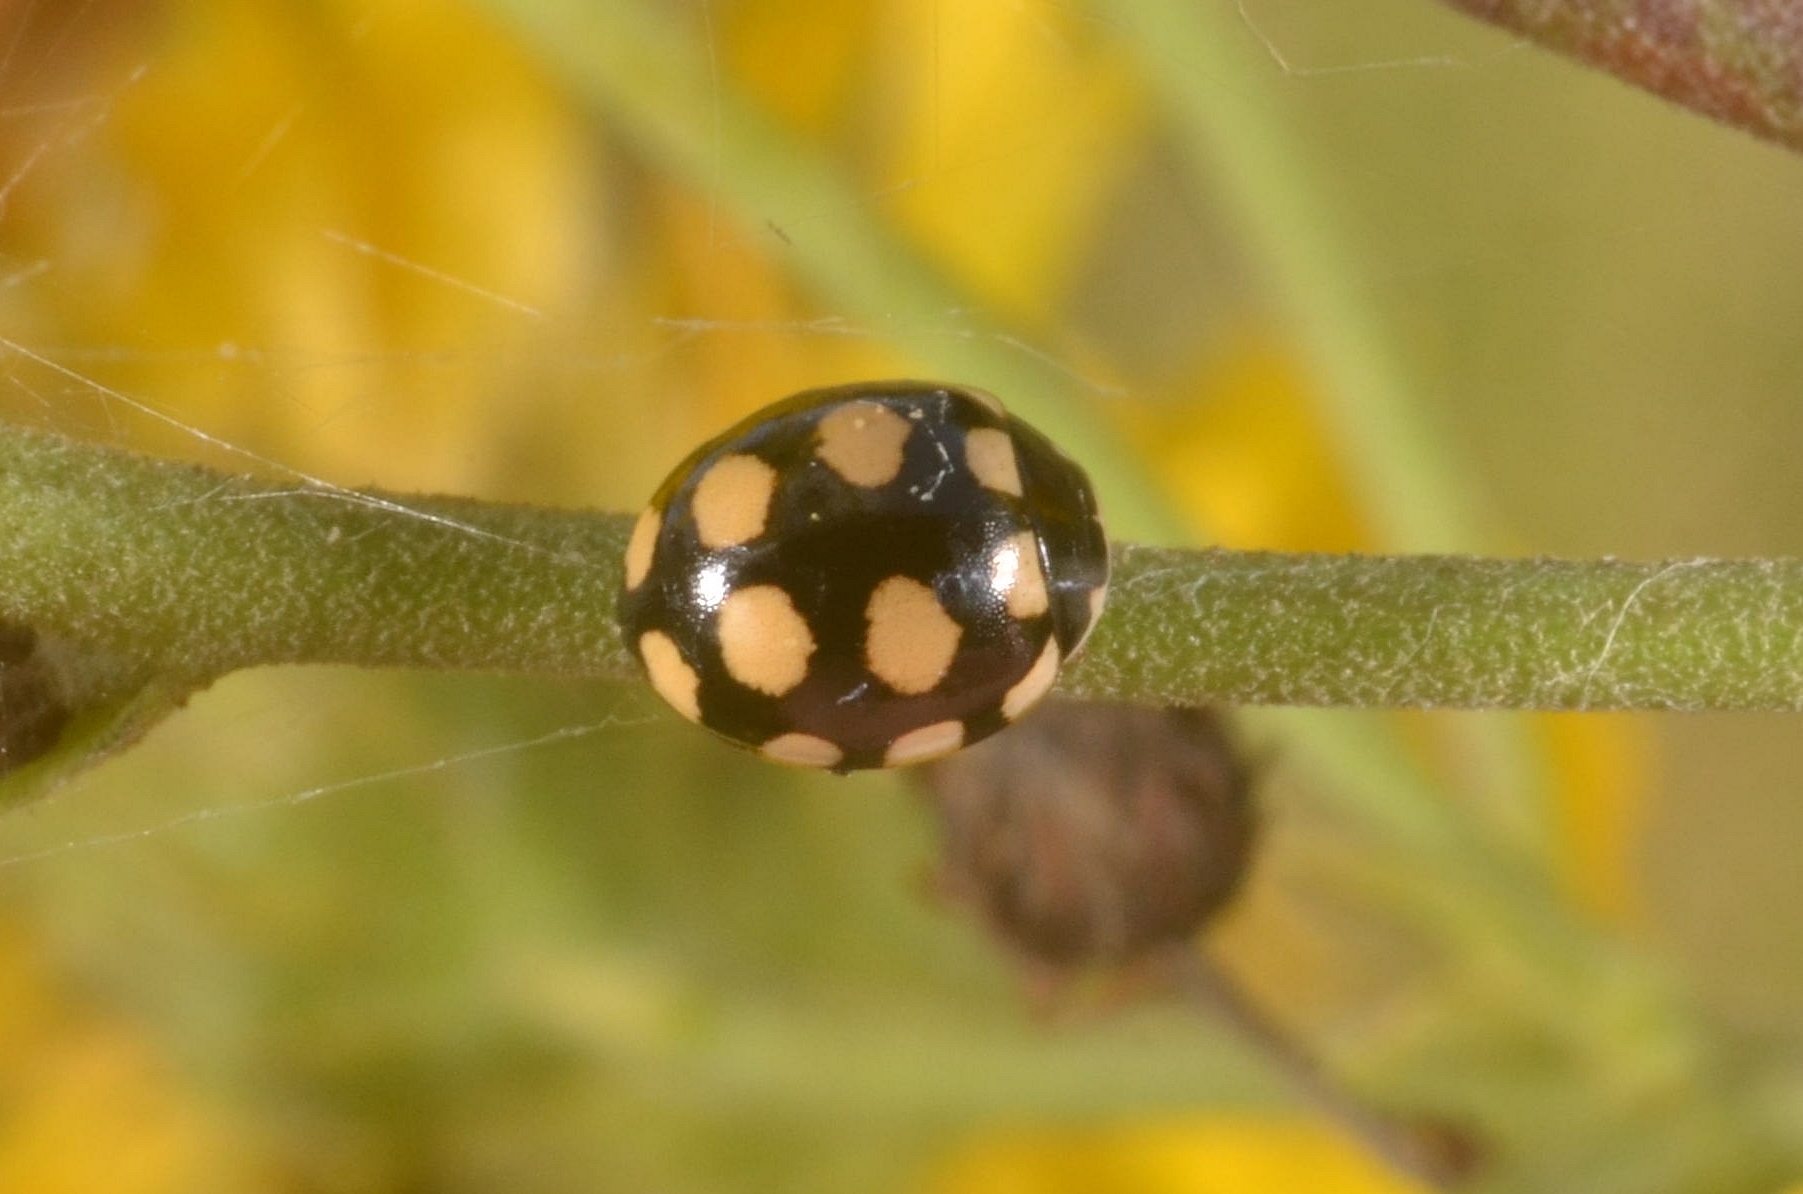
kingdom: Animalia
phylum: Arthropoda
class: Insecta
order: Coleoptera
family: Coccinellidae
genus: Coccinula
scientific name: Coccinula quatuordecimpustulata
